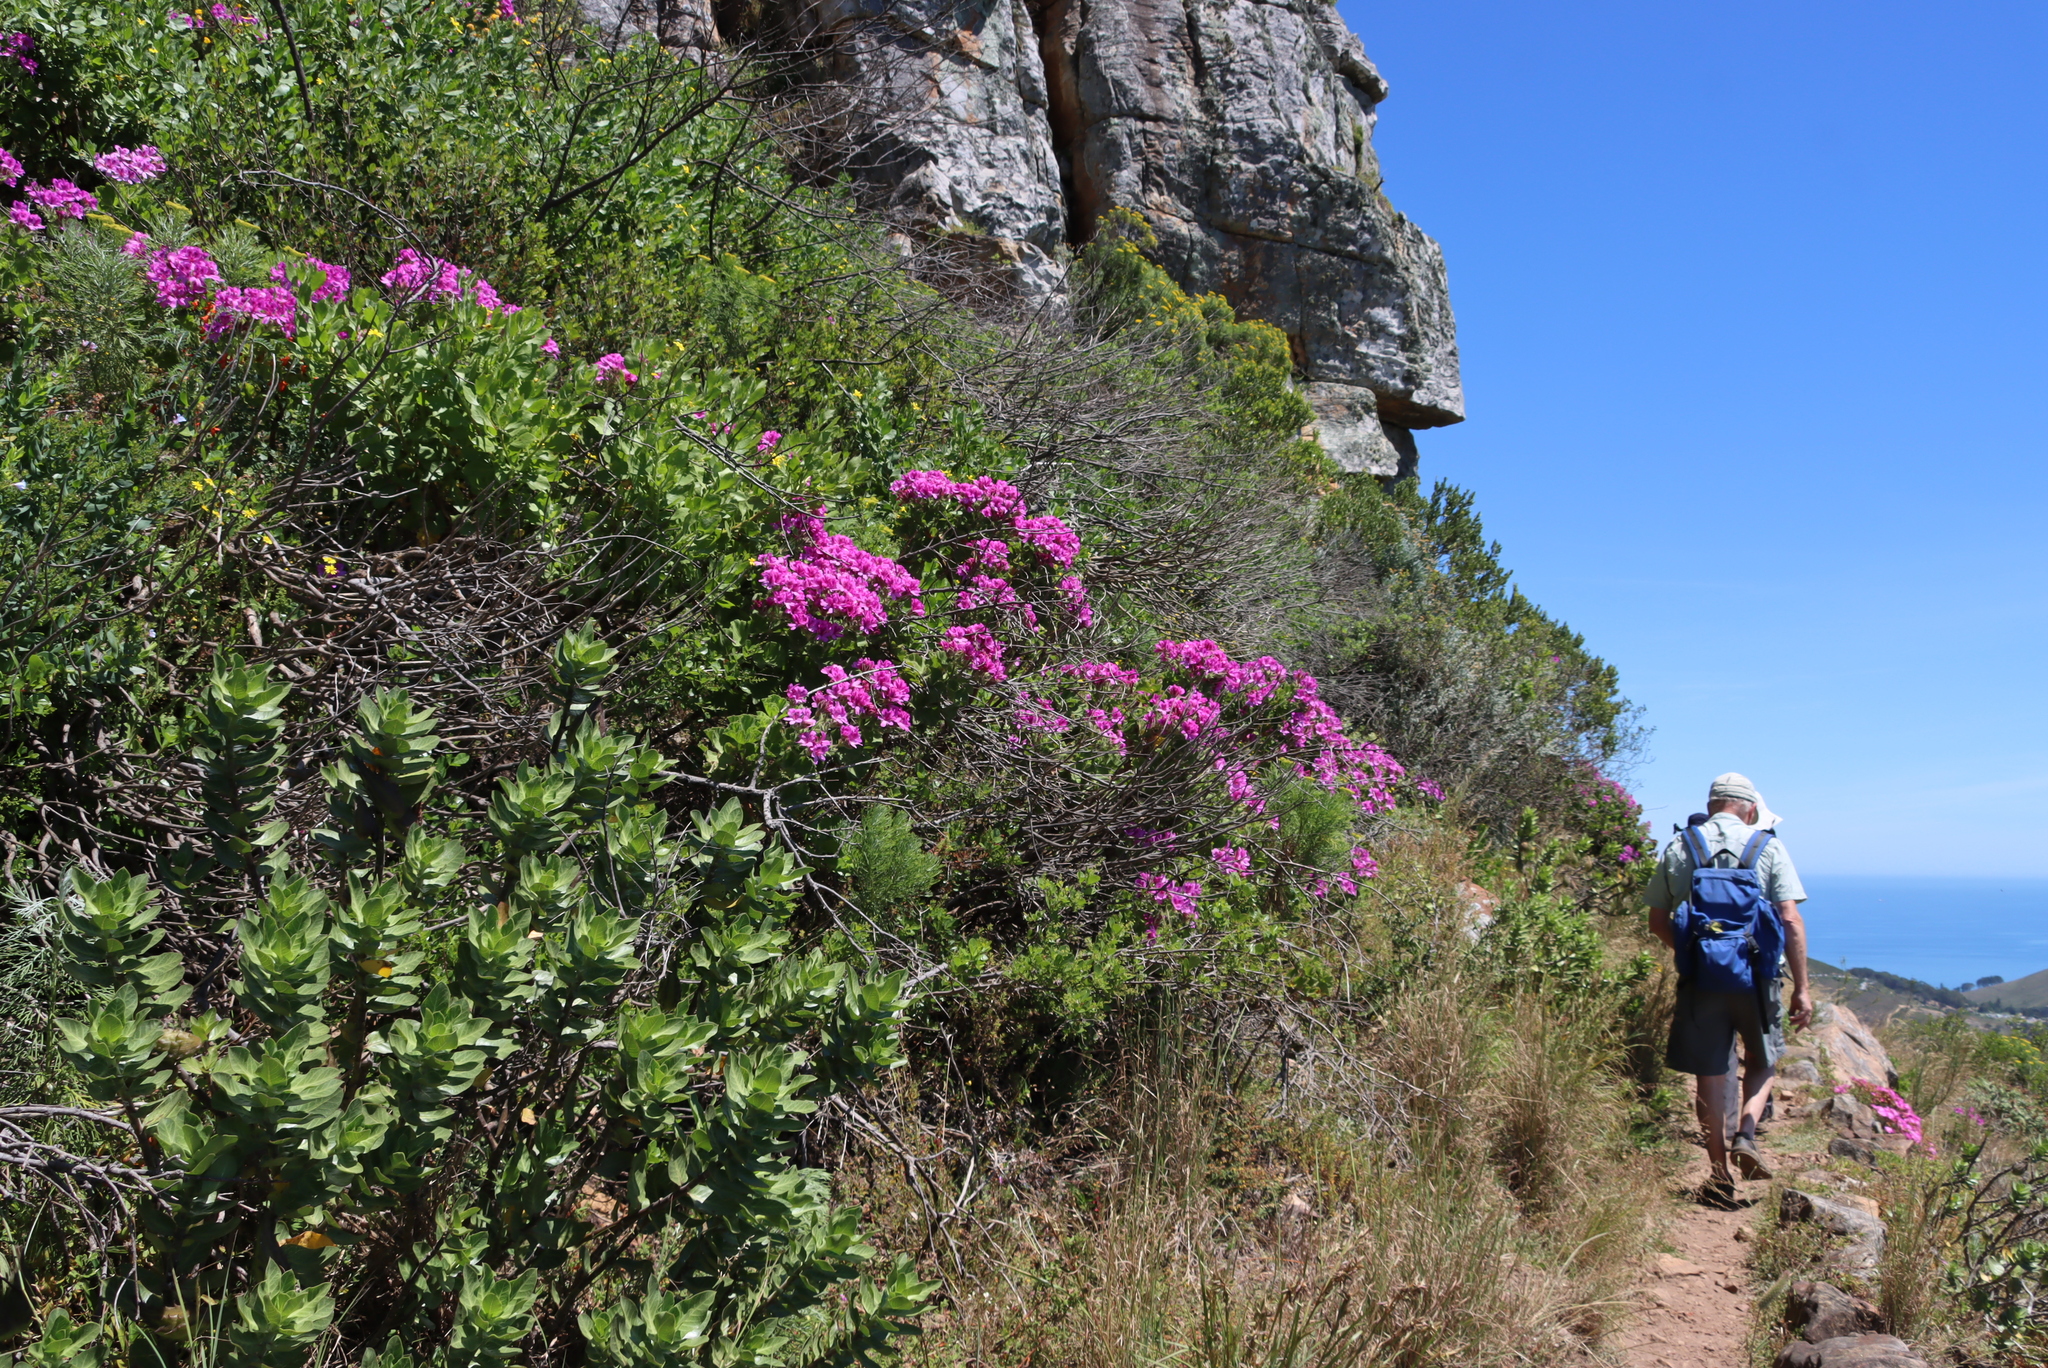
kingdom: Plantae
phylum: Tracheophyta
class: Magnoliopsida
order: Geraniales
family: Geraniaceae
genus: Pelargonium
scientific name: Pelargonium cucullatum
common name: Tree pelargonium
